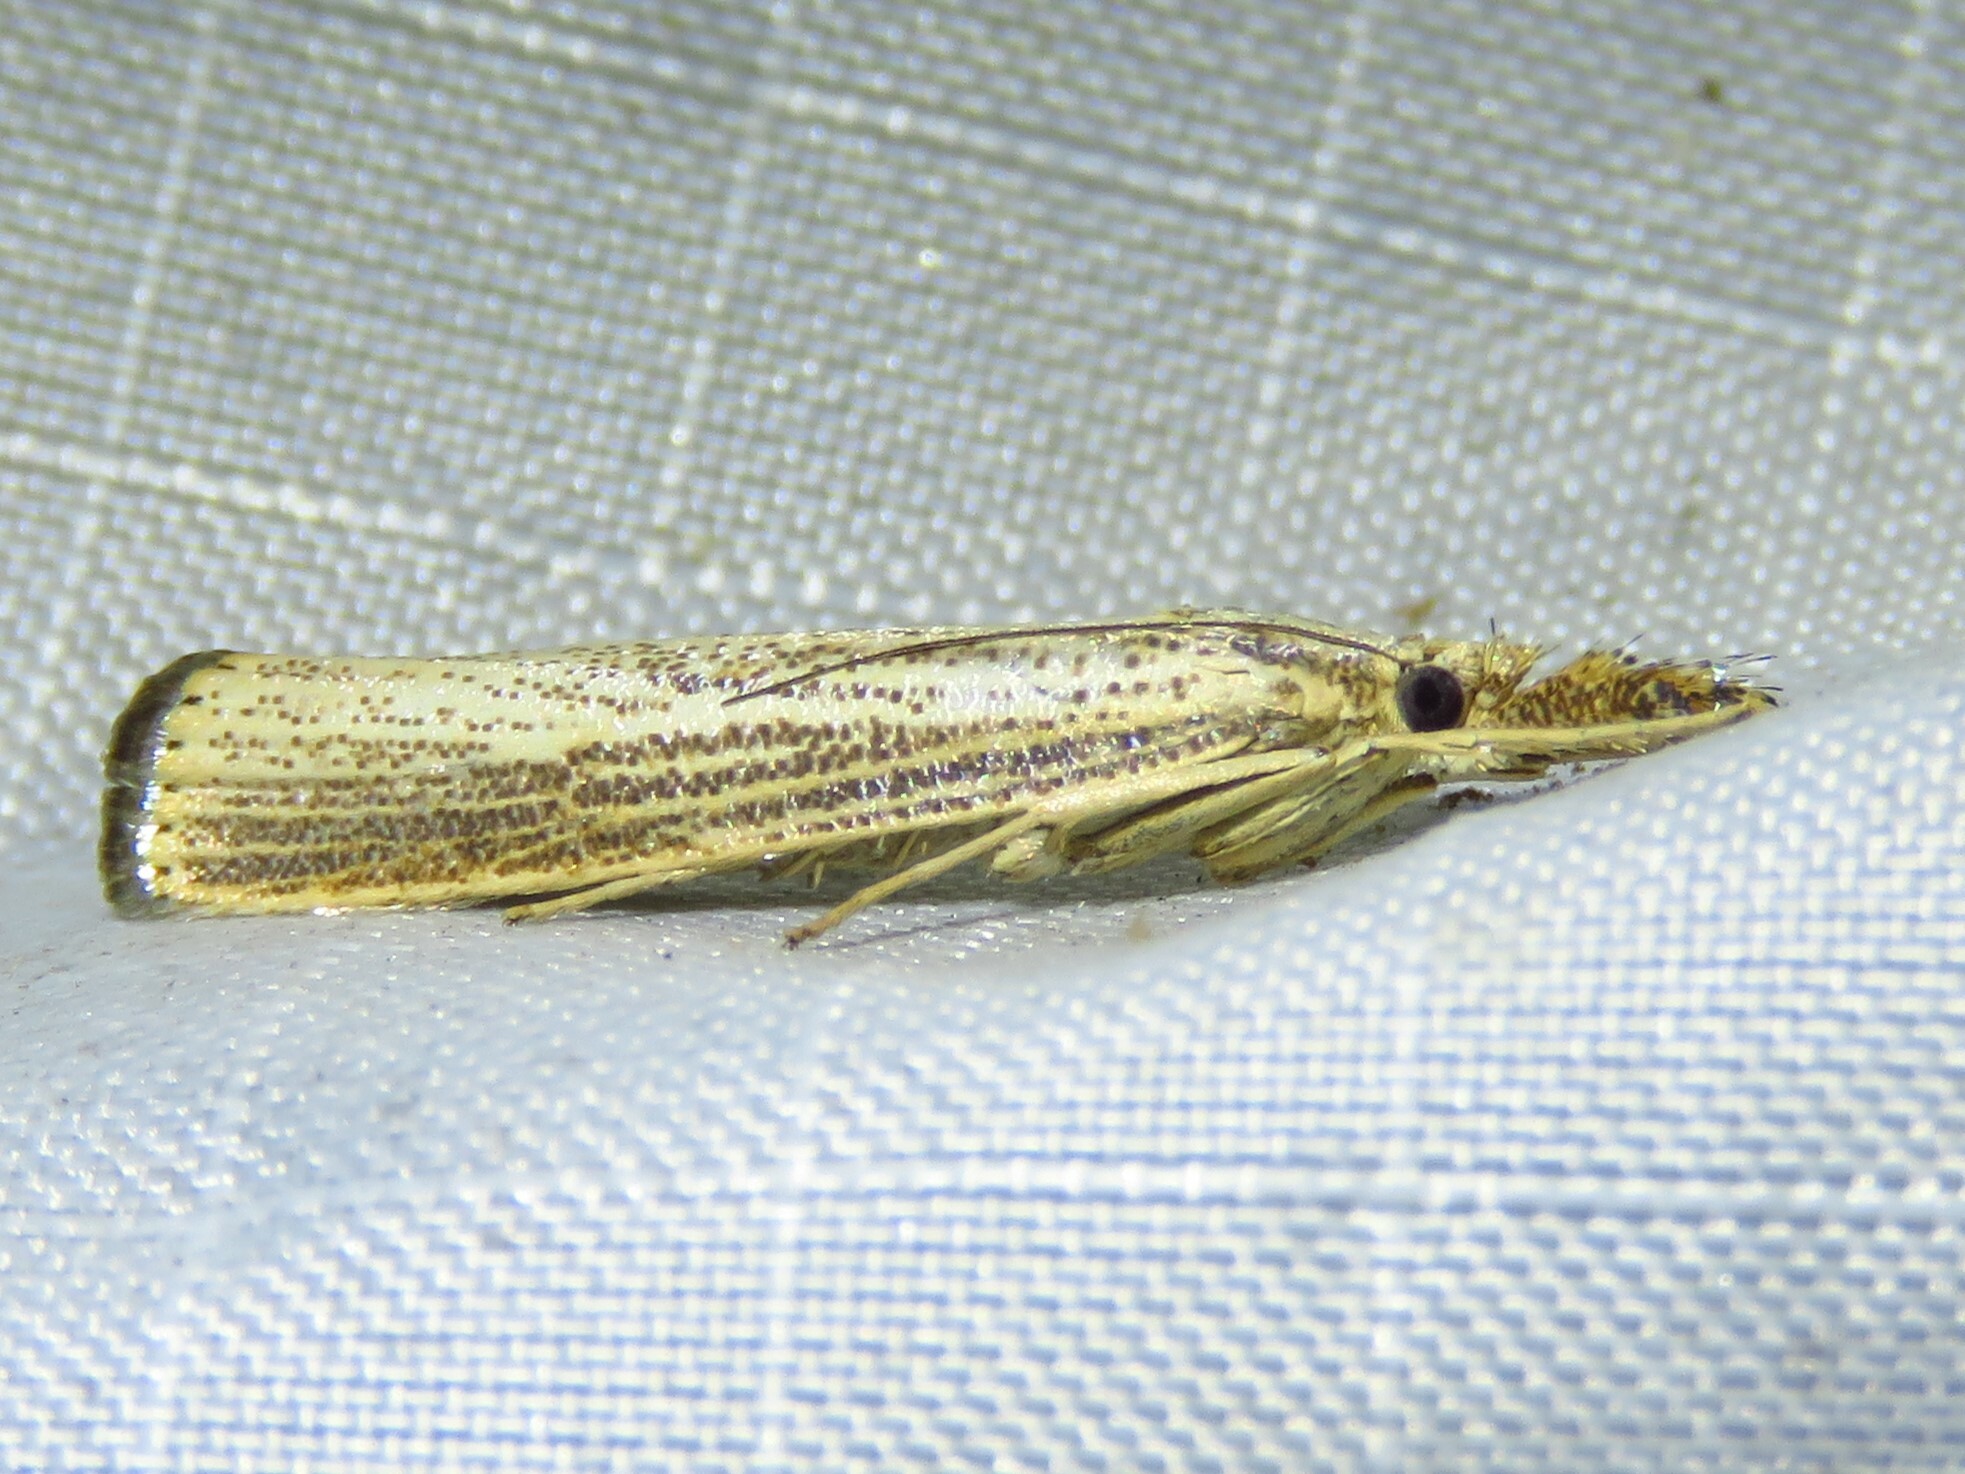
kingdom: Animalia
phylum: Arthropoda
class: Insecta
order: Lepidoptera
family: Crambidae
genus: Agriphila
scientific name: Agriphila vulgivagellus
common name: Vagabond crambus moth
